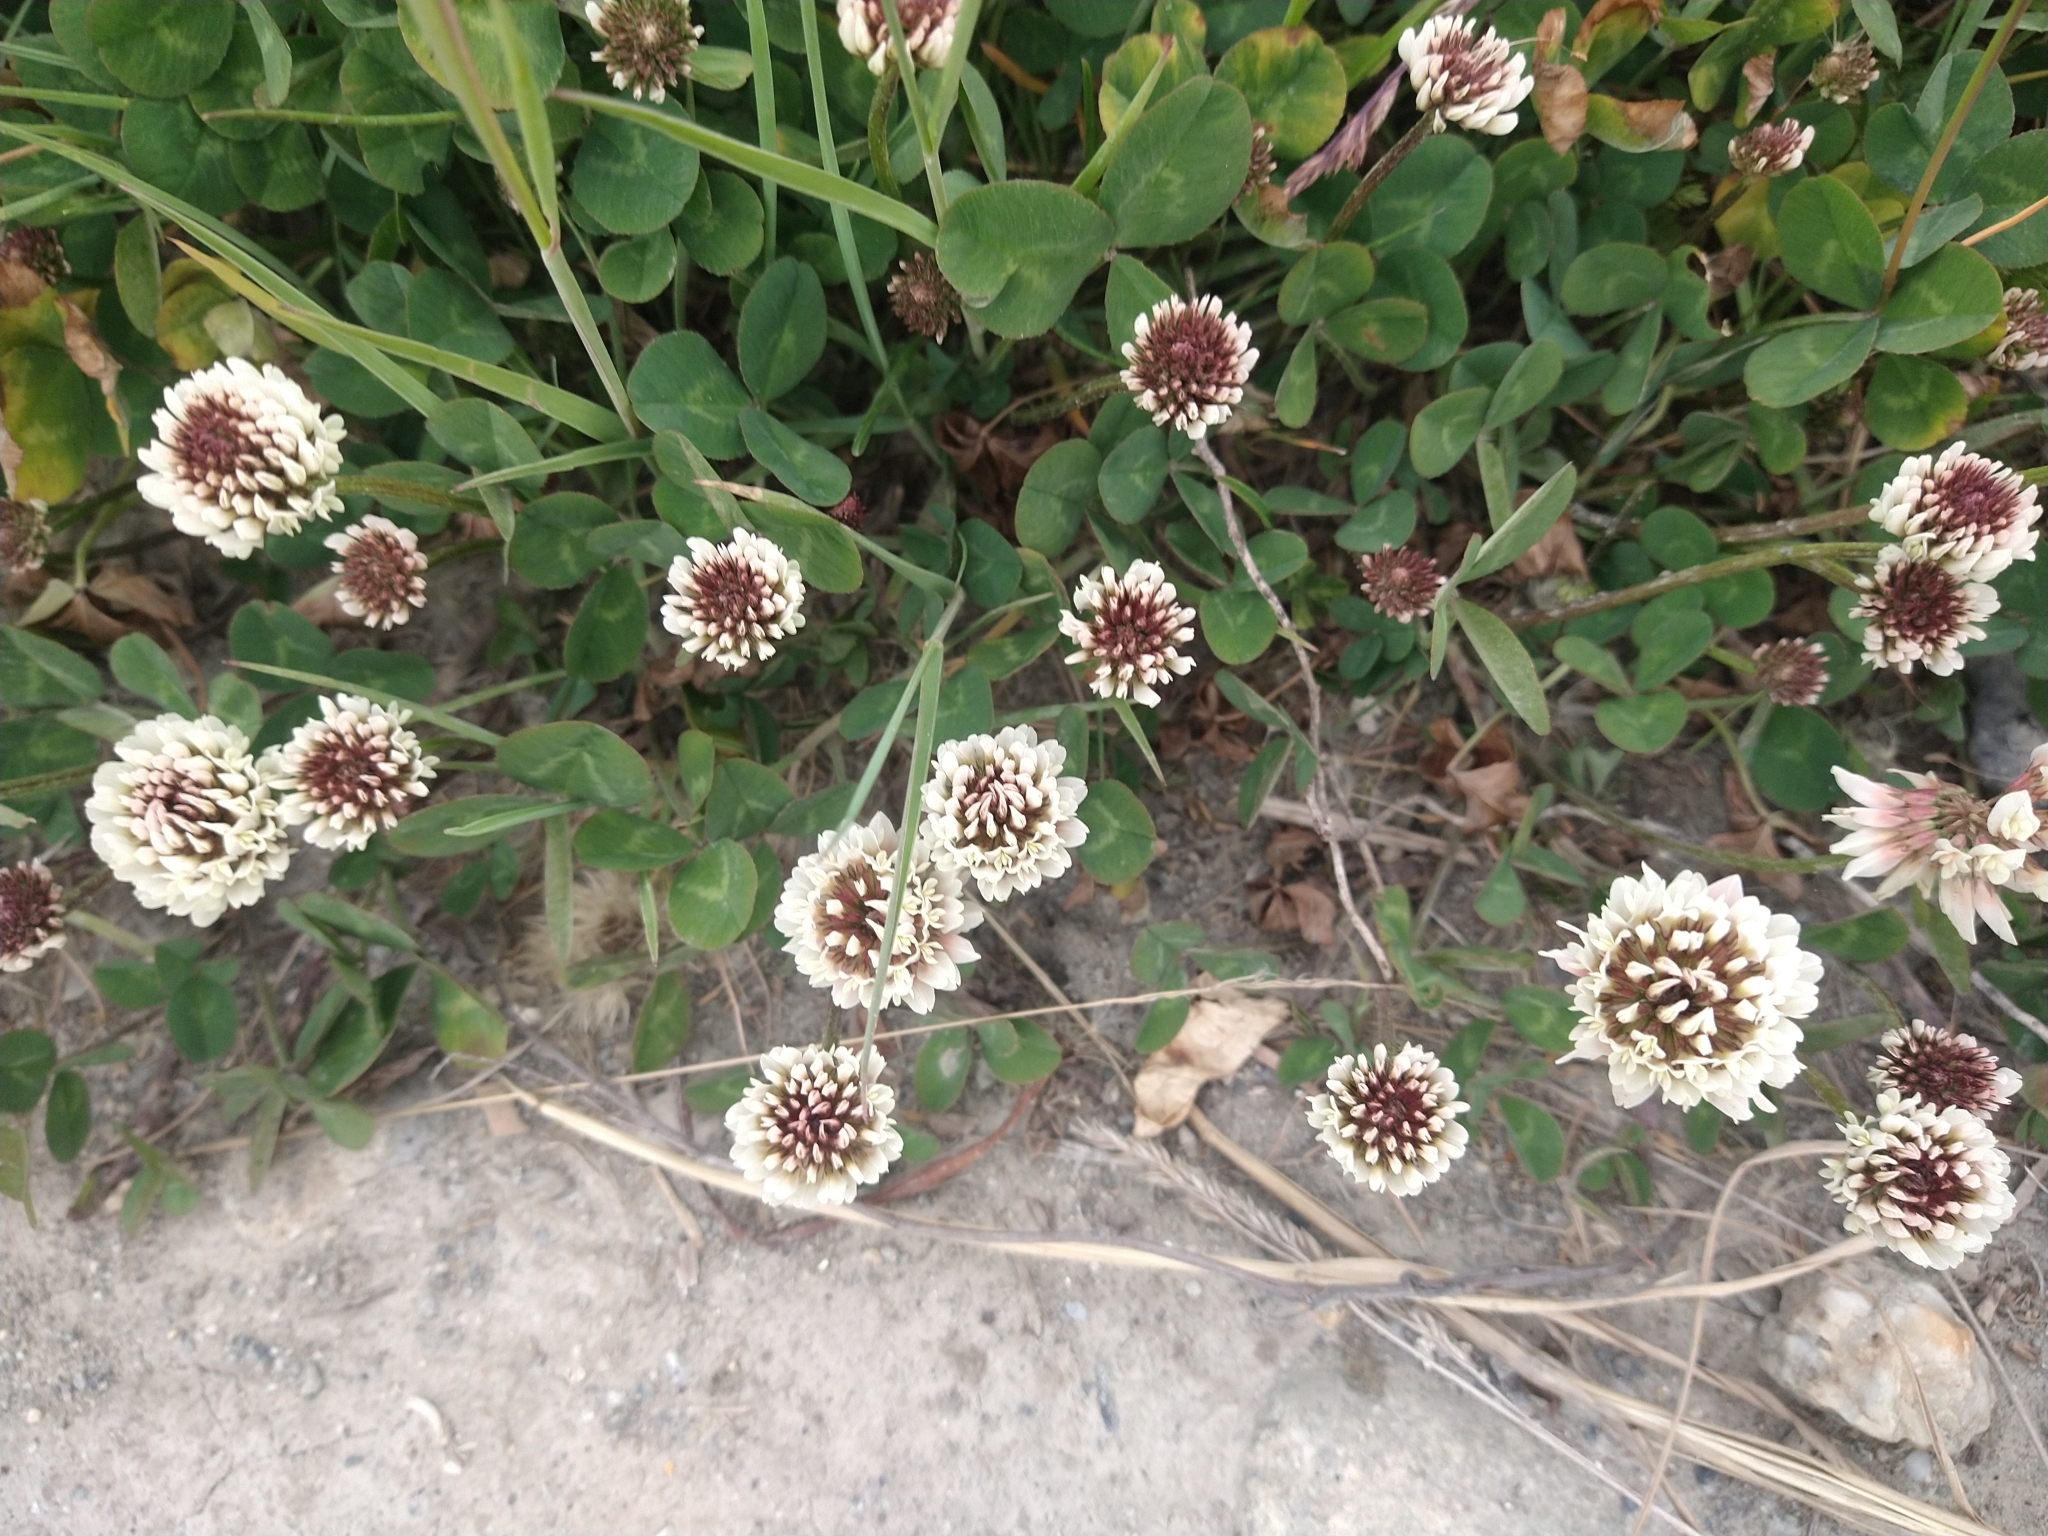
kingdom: Plantae
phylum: Tracheophyta
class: Magnoliopsida
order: Fabales
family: Fabaceae
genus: Trifolium
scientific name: Trifolium repens
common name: White clover
